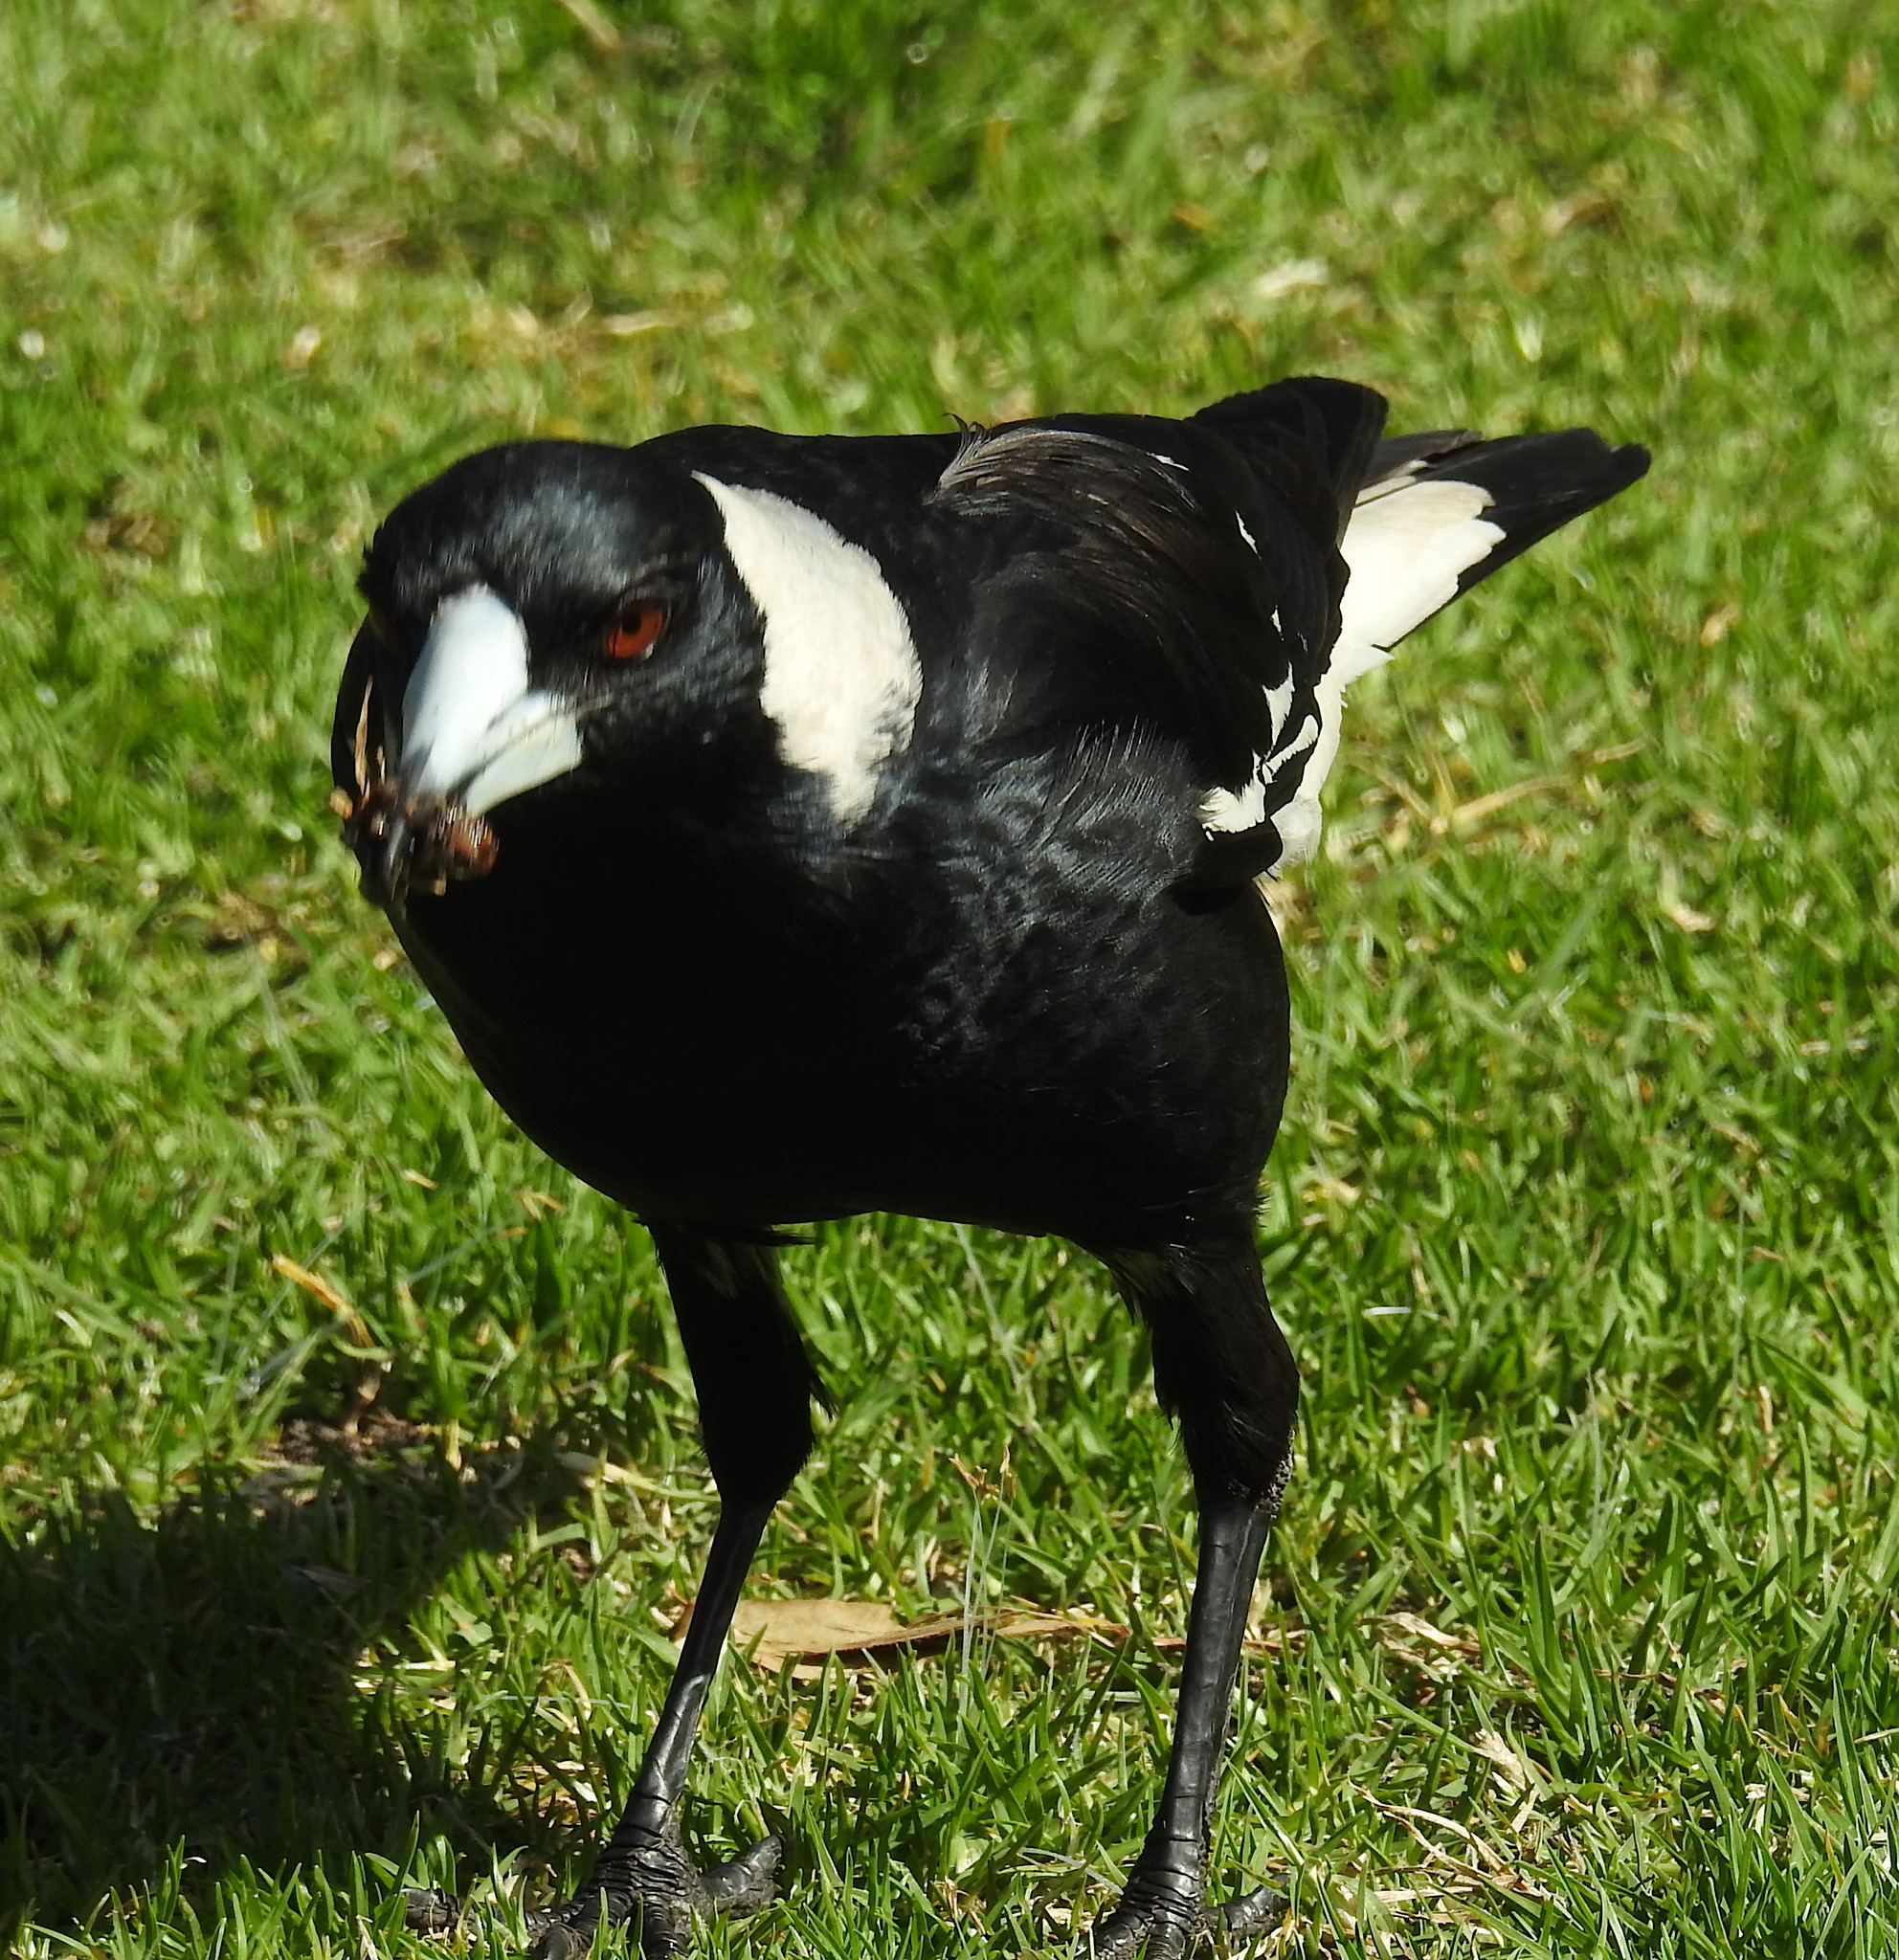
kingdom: Animalia
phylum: Chordata
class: Aves
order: Passeriformes
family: Cracticidae
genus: Gymnorhina
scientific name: Gymnorhina tibicen
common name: Australian magpie
